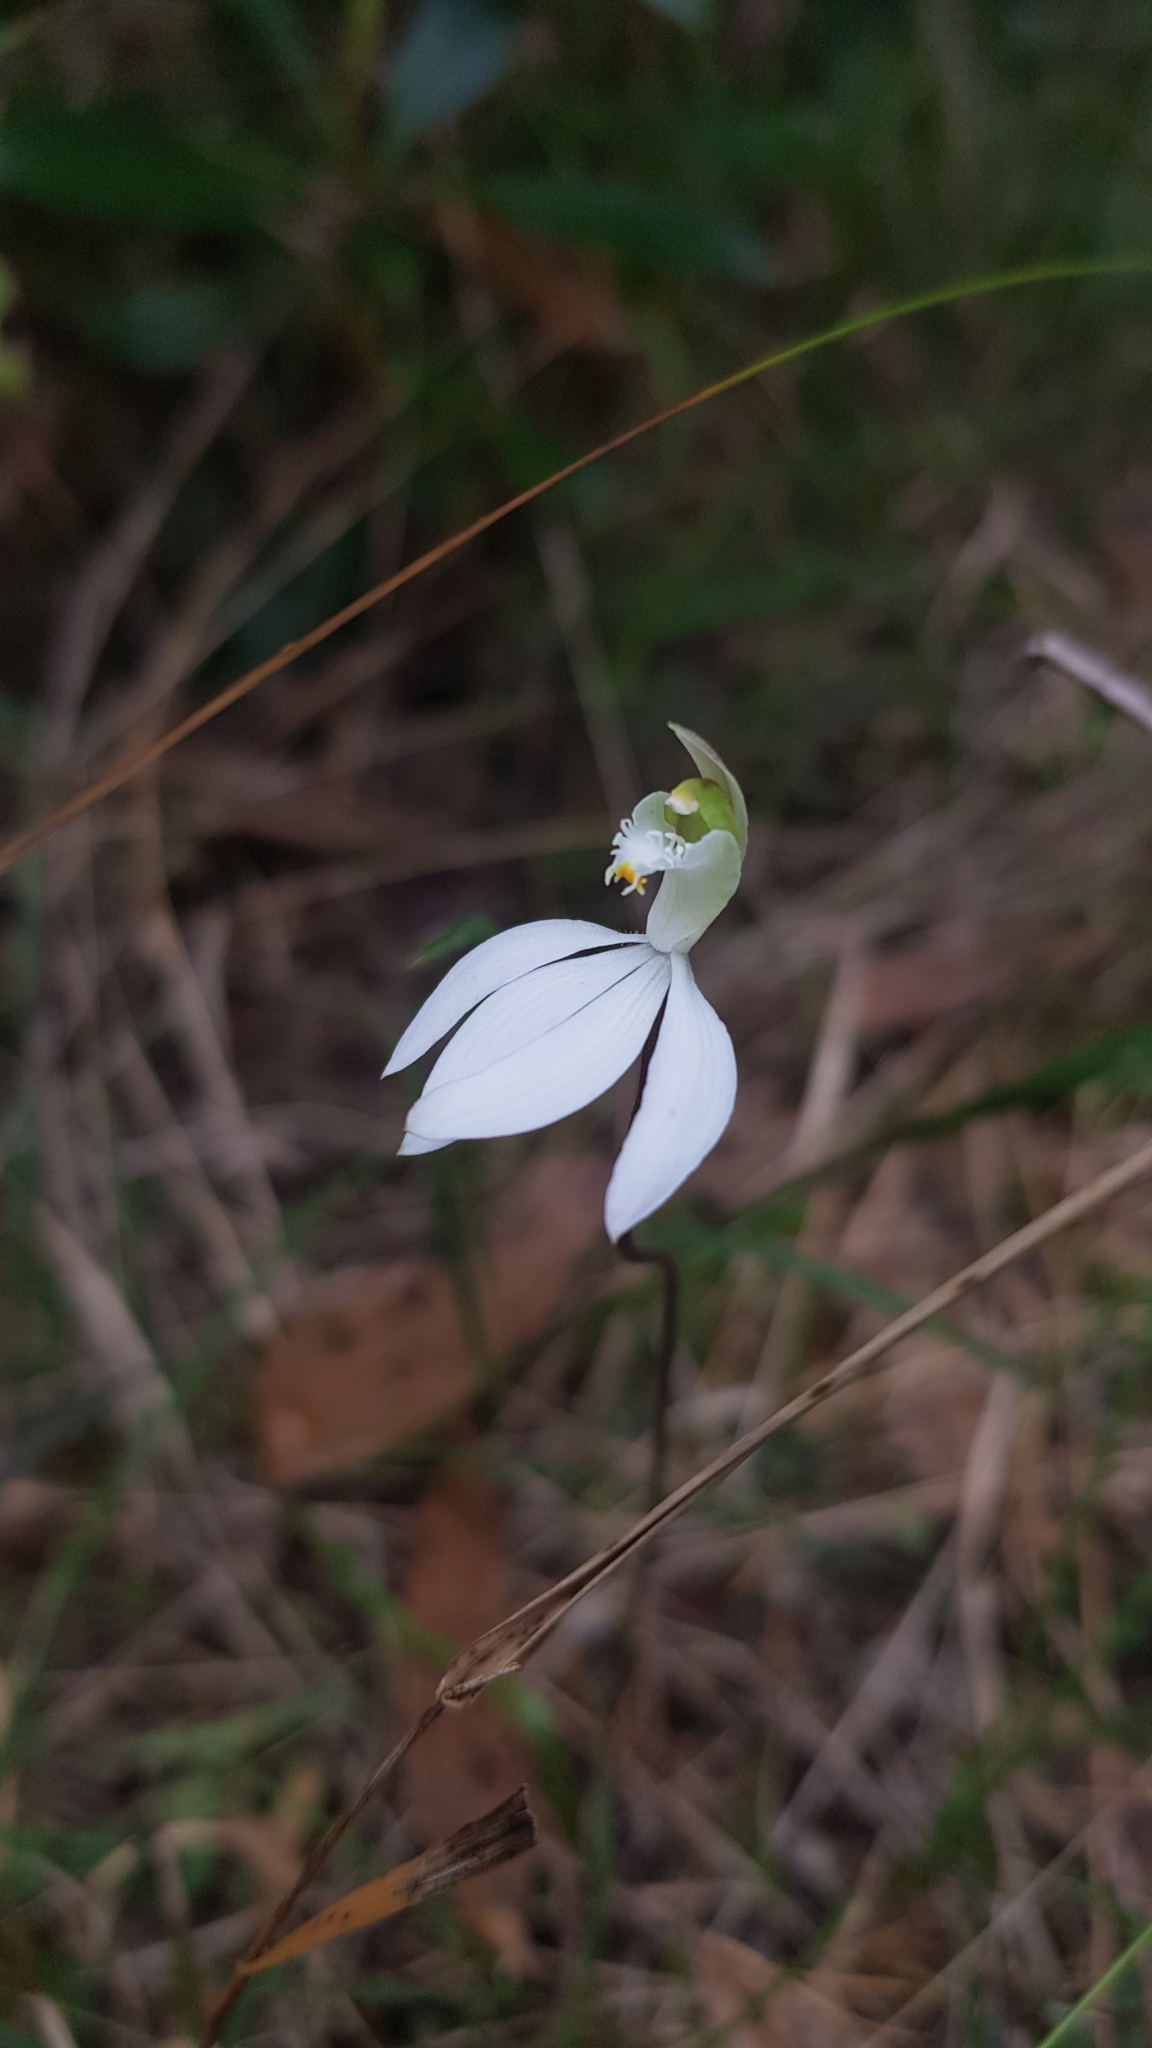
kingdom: Plantae
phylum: Tracheophyta
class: Liliopsida
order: Asparagales
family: Orchidaceae
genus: Caladenia
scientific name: Caladenia catenata
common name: White caladenia
